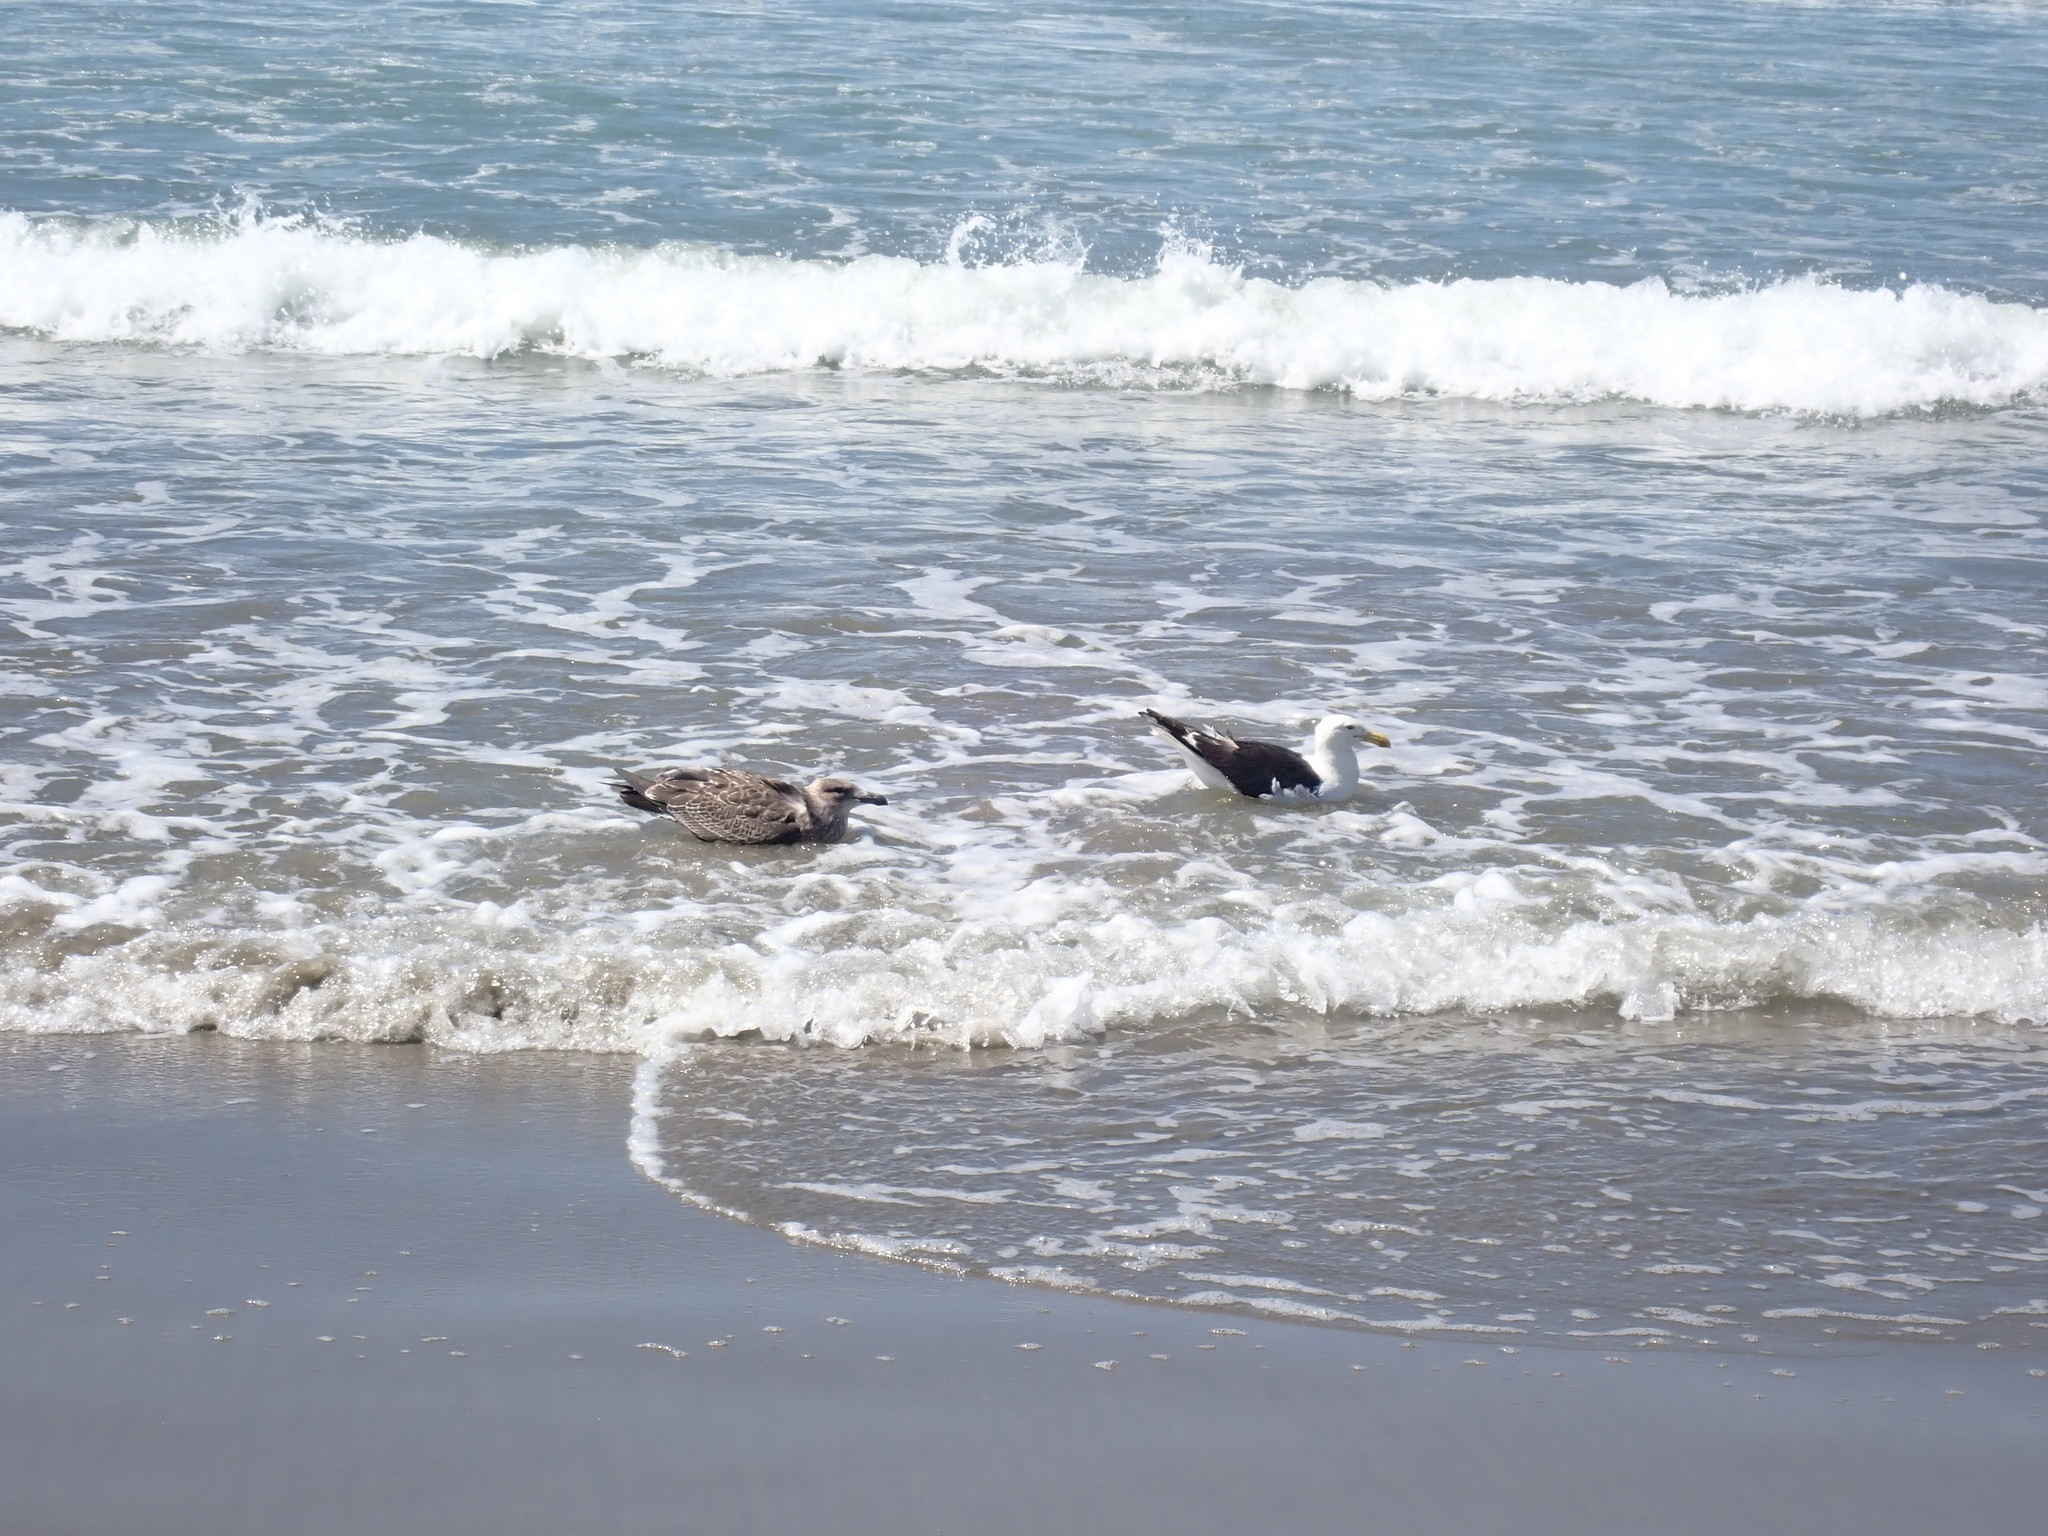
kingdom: Animalia
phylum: Chordata
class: Aves
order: Charadriiformes
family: Laridae
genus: Larus
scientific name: Larus dominicanus
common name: Kelp gull
